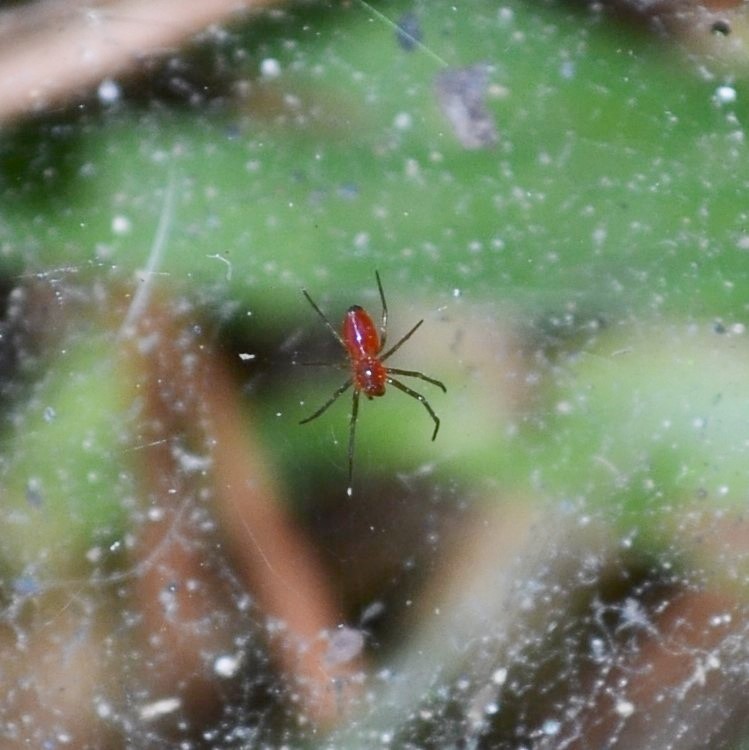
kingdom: Animalia
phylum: Arthropoda
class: Arachnida
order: Araneae
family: Linyphiidae
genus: Florinda
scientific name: Florinda coccinea
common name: Black-tailed red sheetweaver
